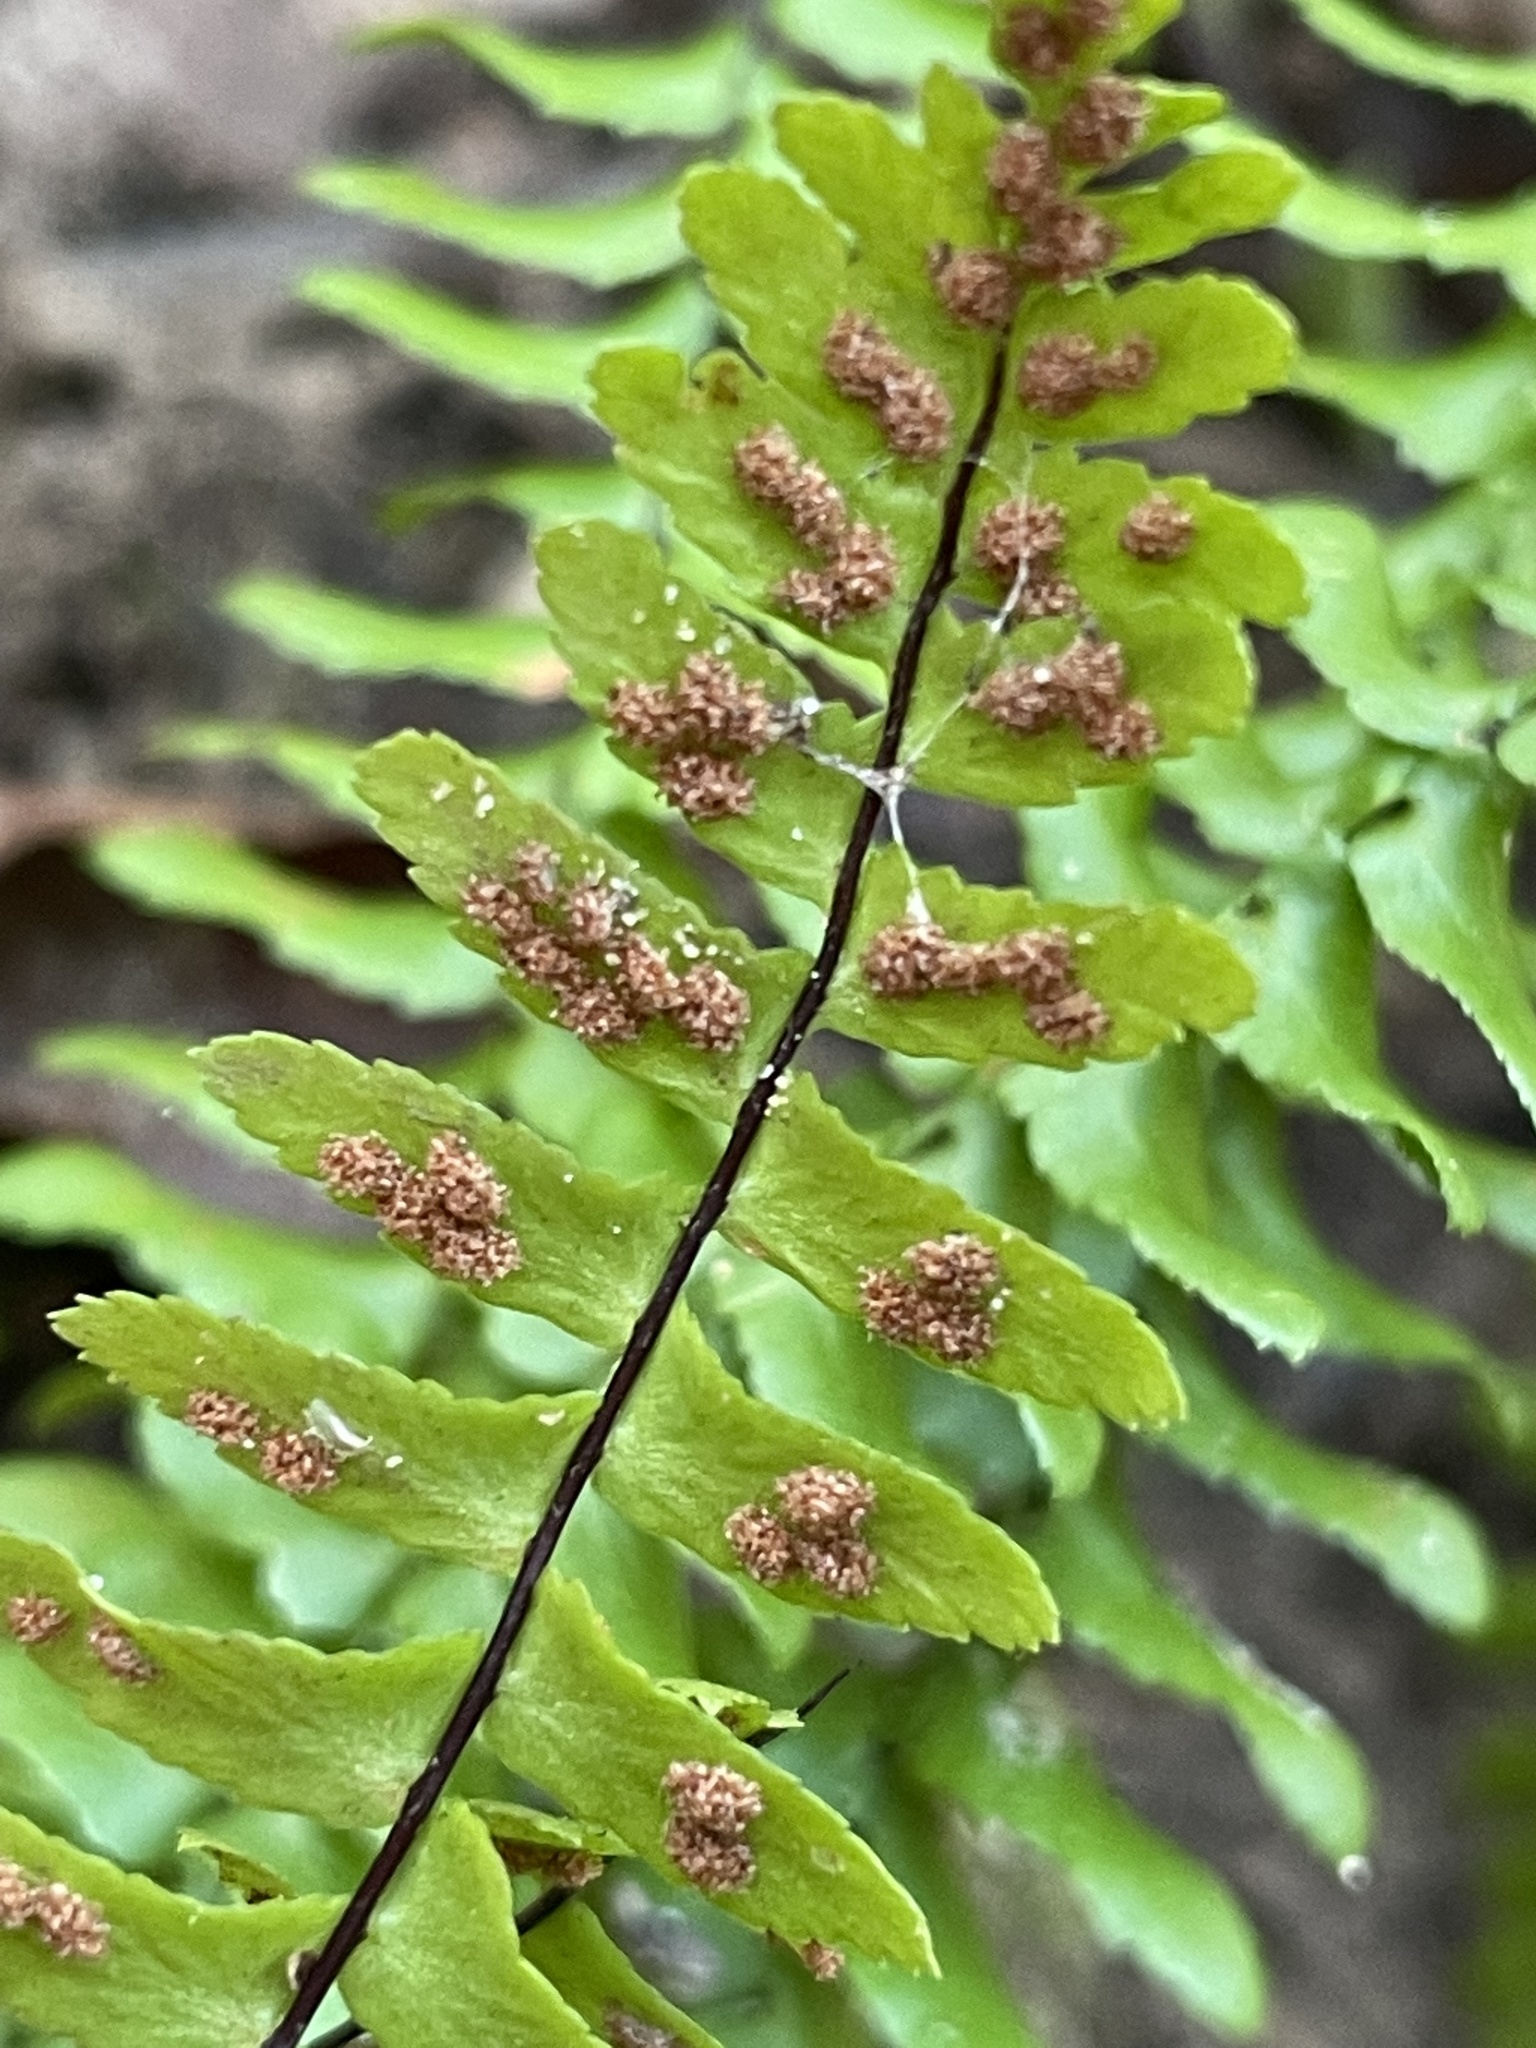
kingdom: Plantae
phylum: Tracheophyta
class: Polypodiopsida
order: Polypodiales
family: Aspleniaceae
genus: Asplenium
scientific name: Asplenium platyneuron
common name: Ebony spleenwort
